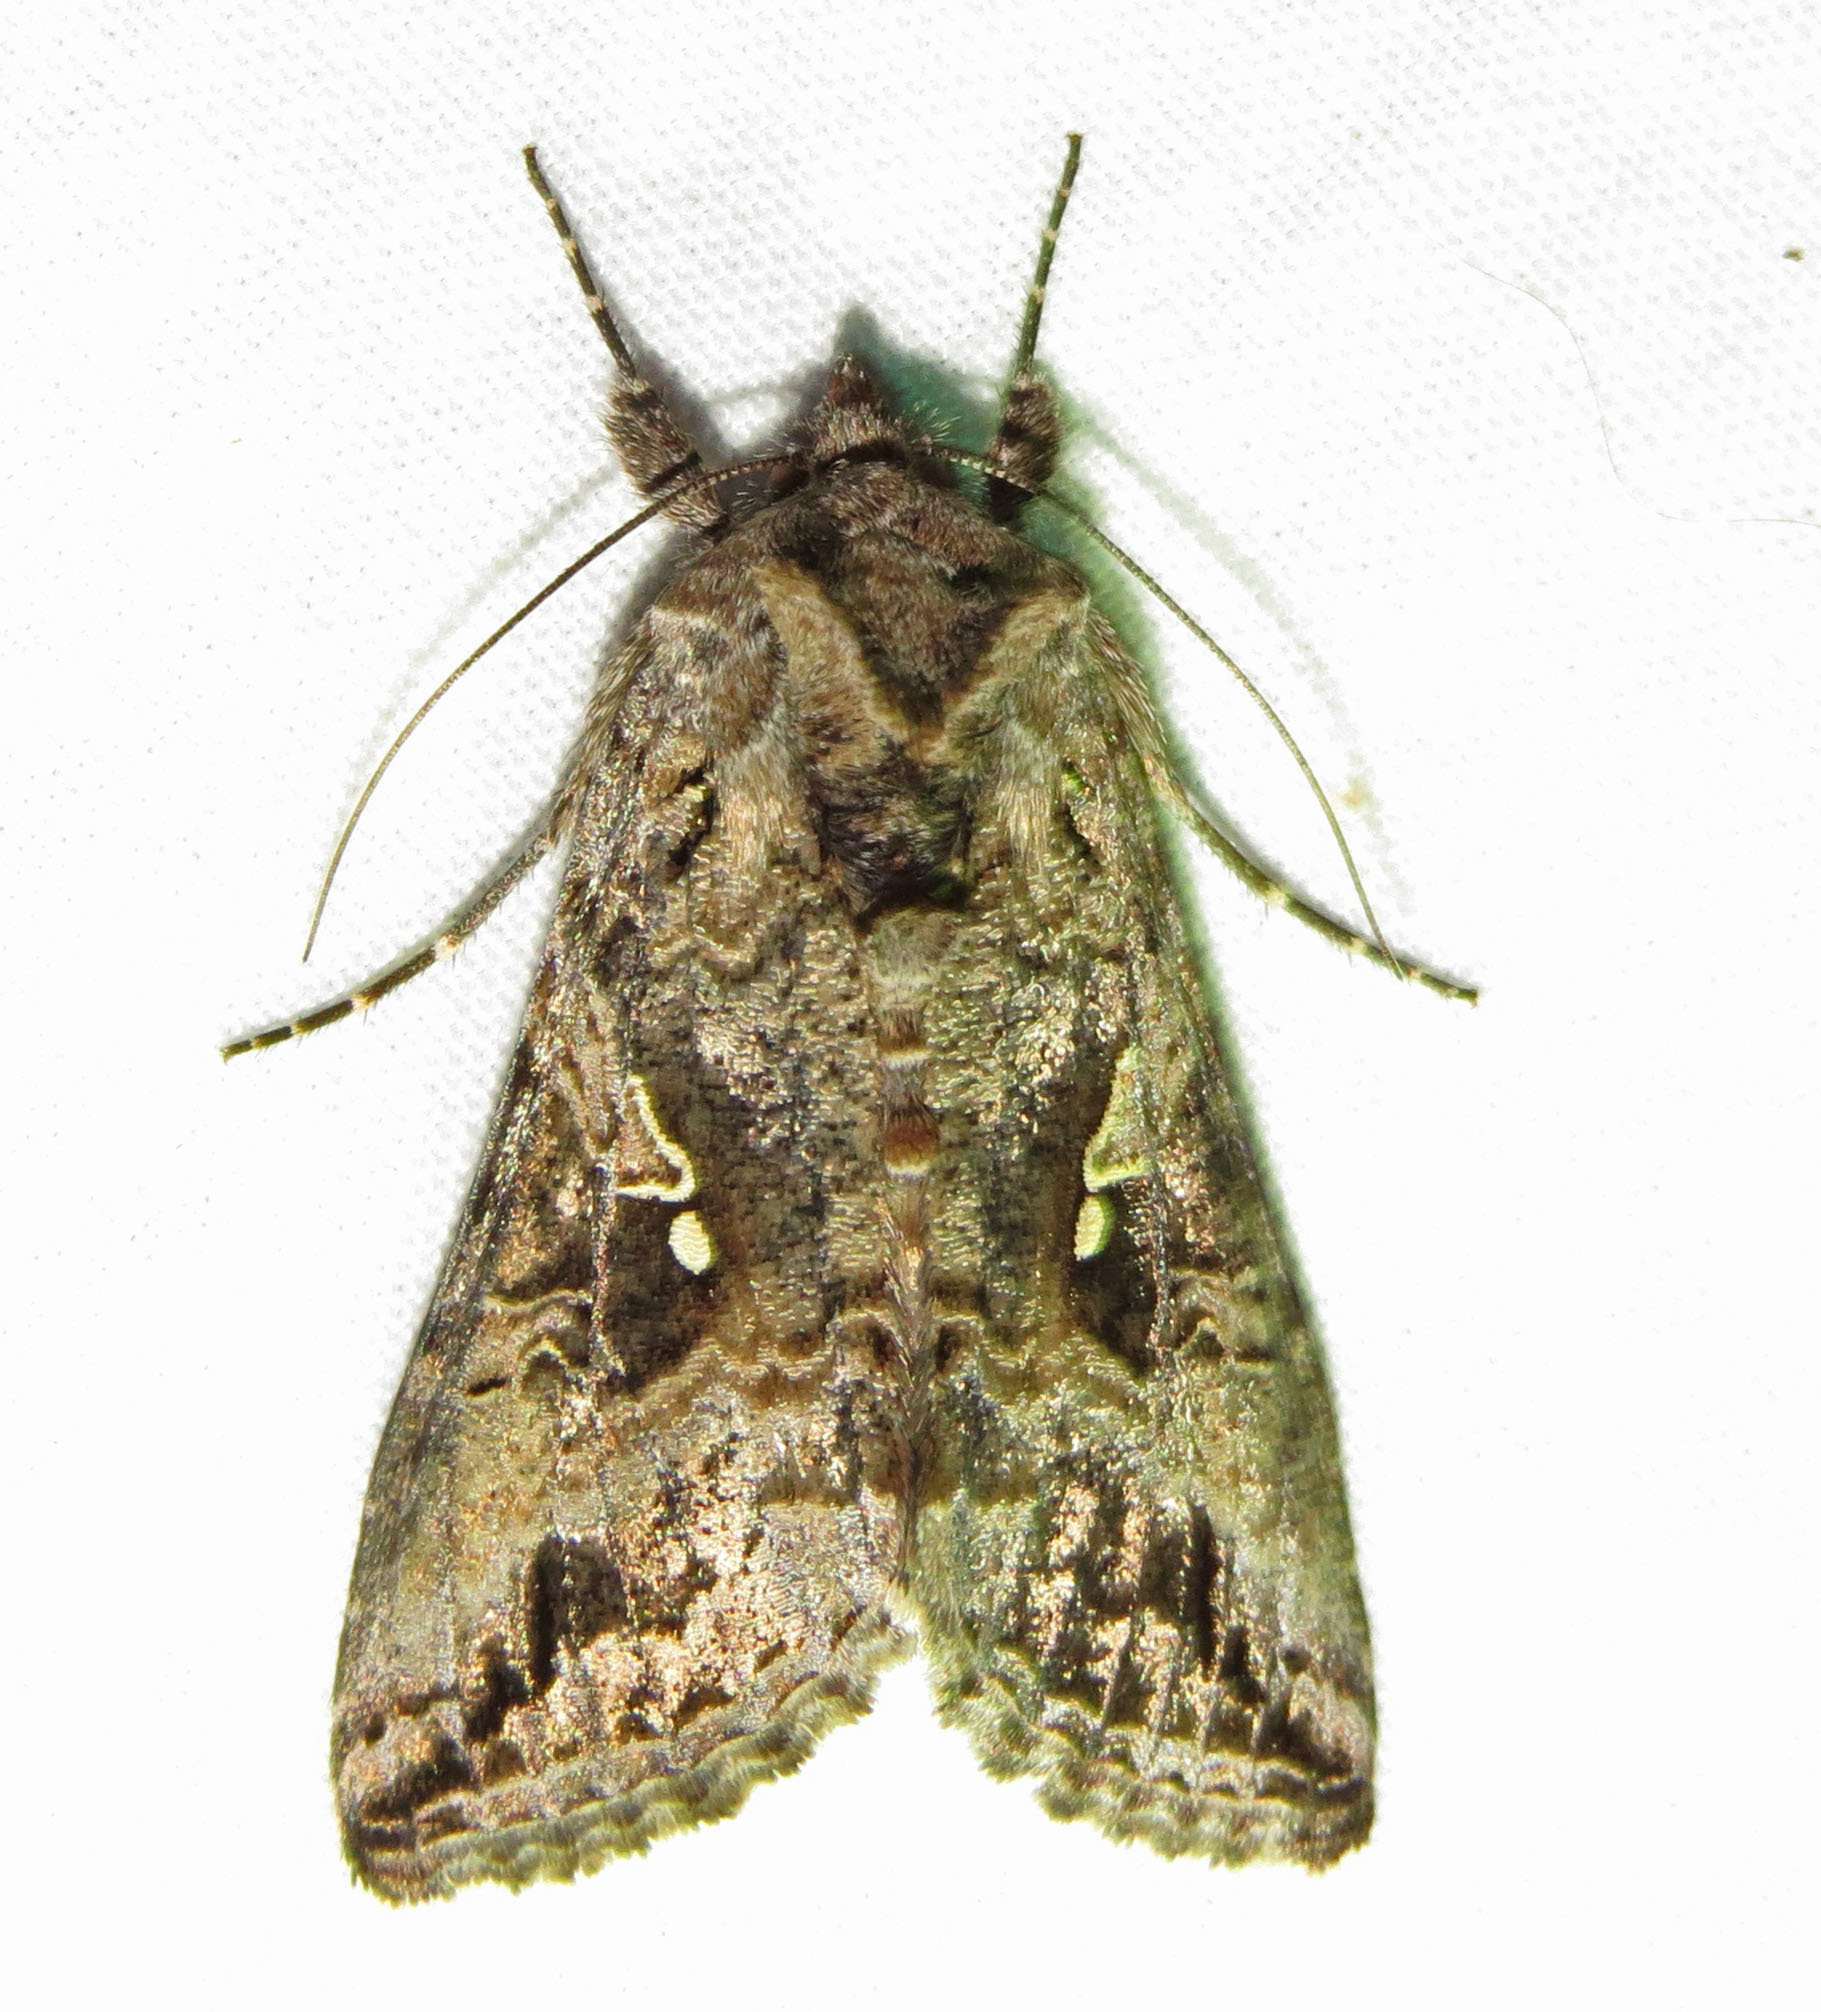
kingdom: Animalia
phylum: Arthropoda
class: Insecta
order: Lepidoptera
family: Noctuidae
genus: Rachiplusia
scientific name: Rachiplusia ou
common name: Gray looper moth
